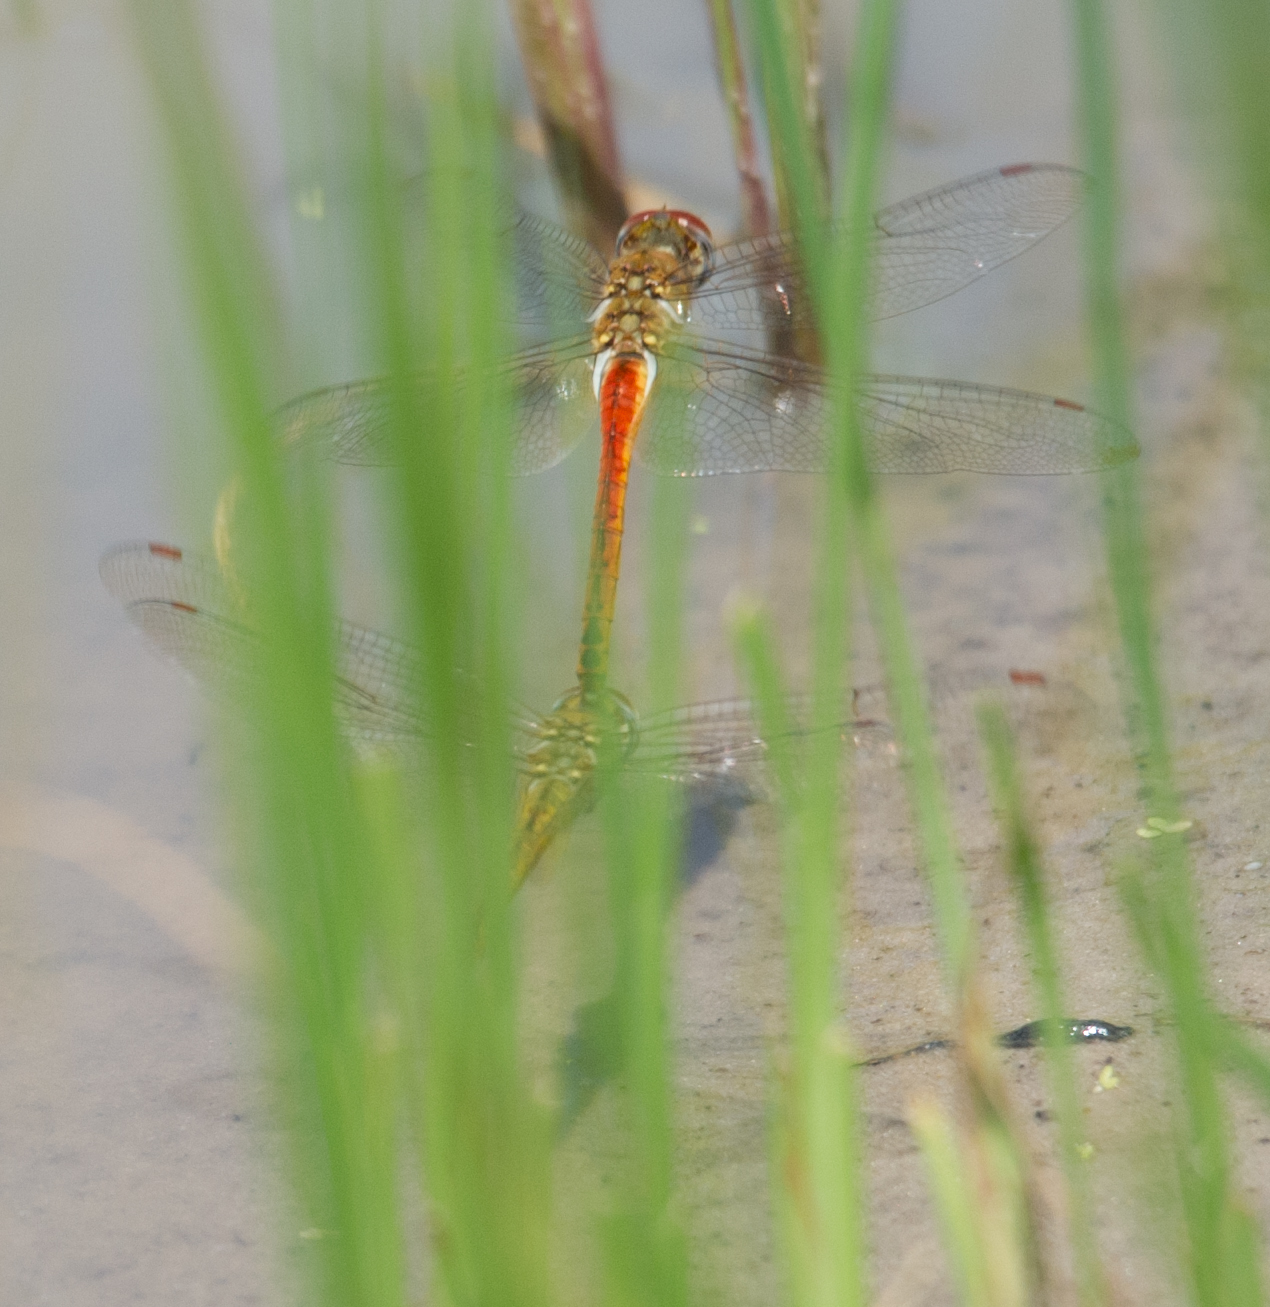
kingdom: Animalia
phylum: Arthropoda
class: Insecta
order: Odonata
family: Libellulidae
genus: Pantala
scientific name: Pantala flavescens
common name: Wandering glider
